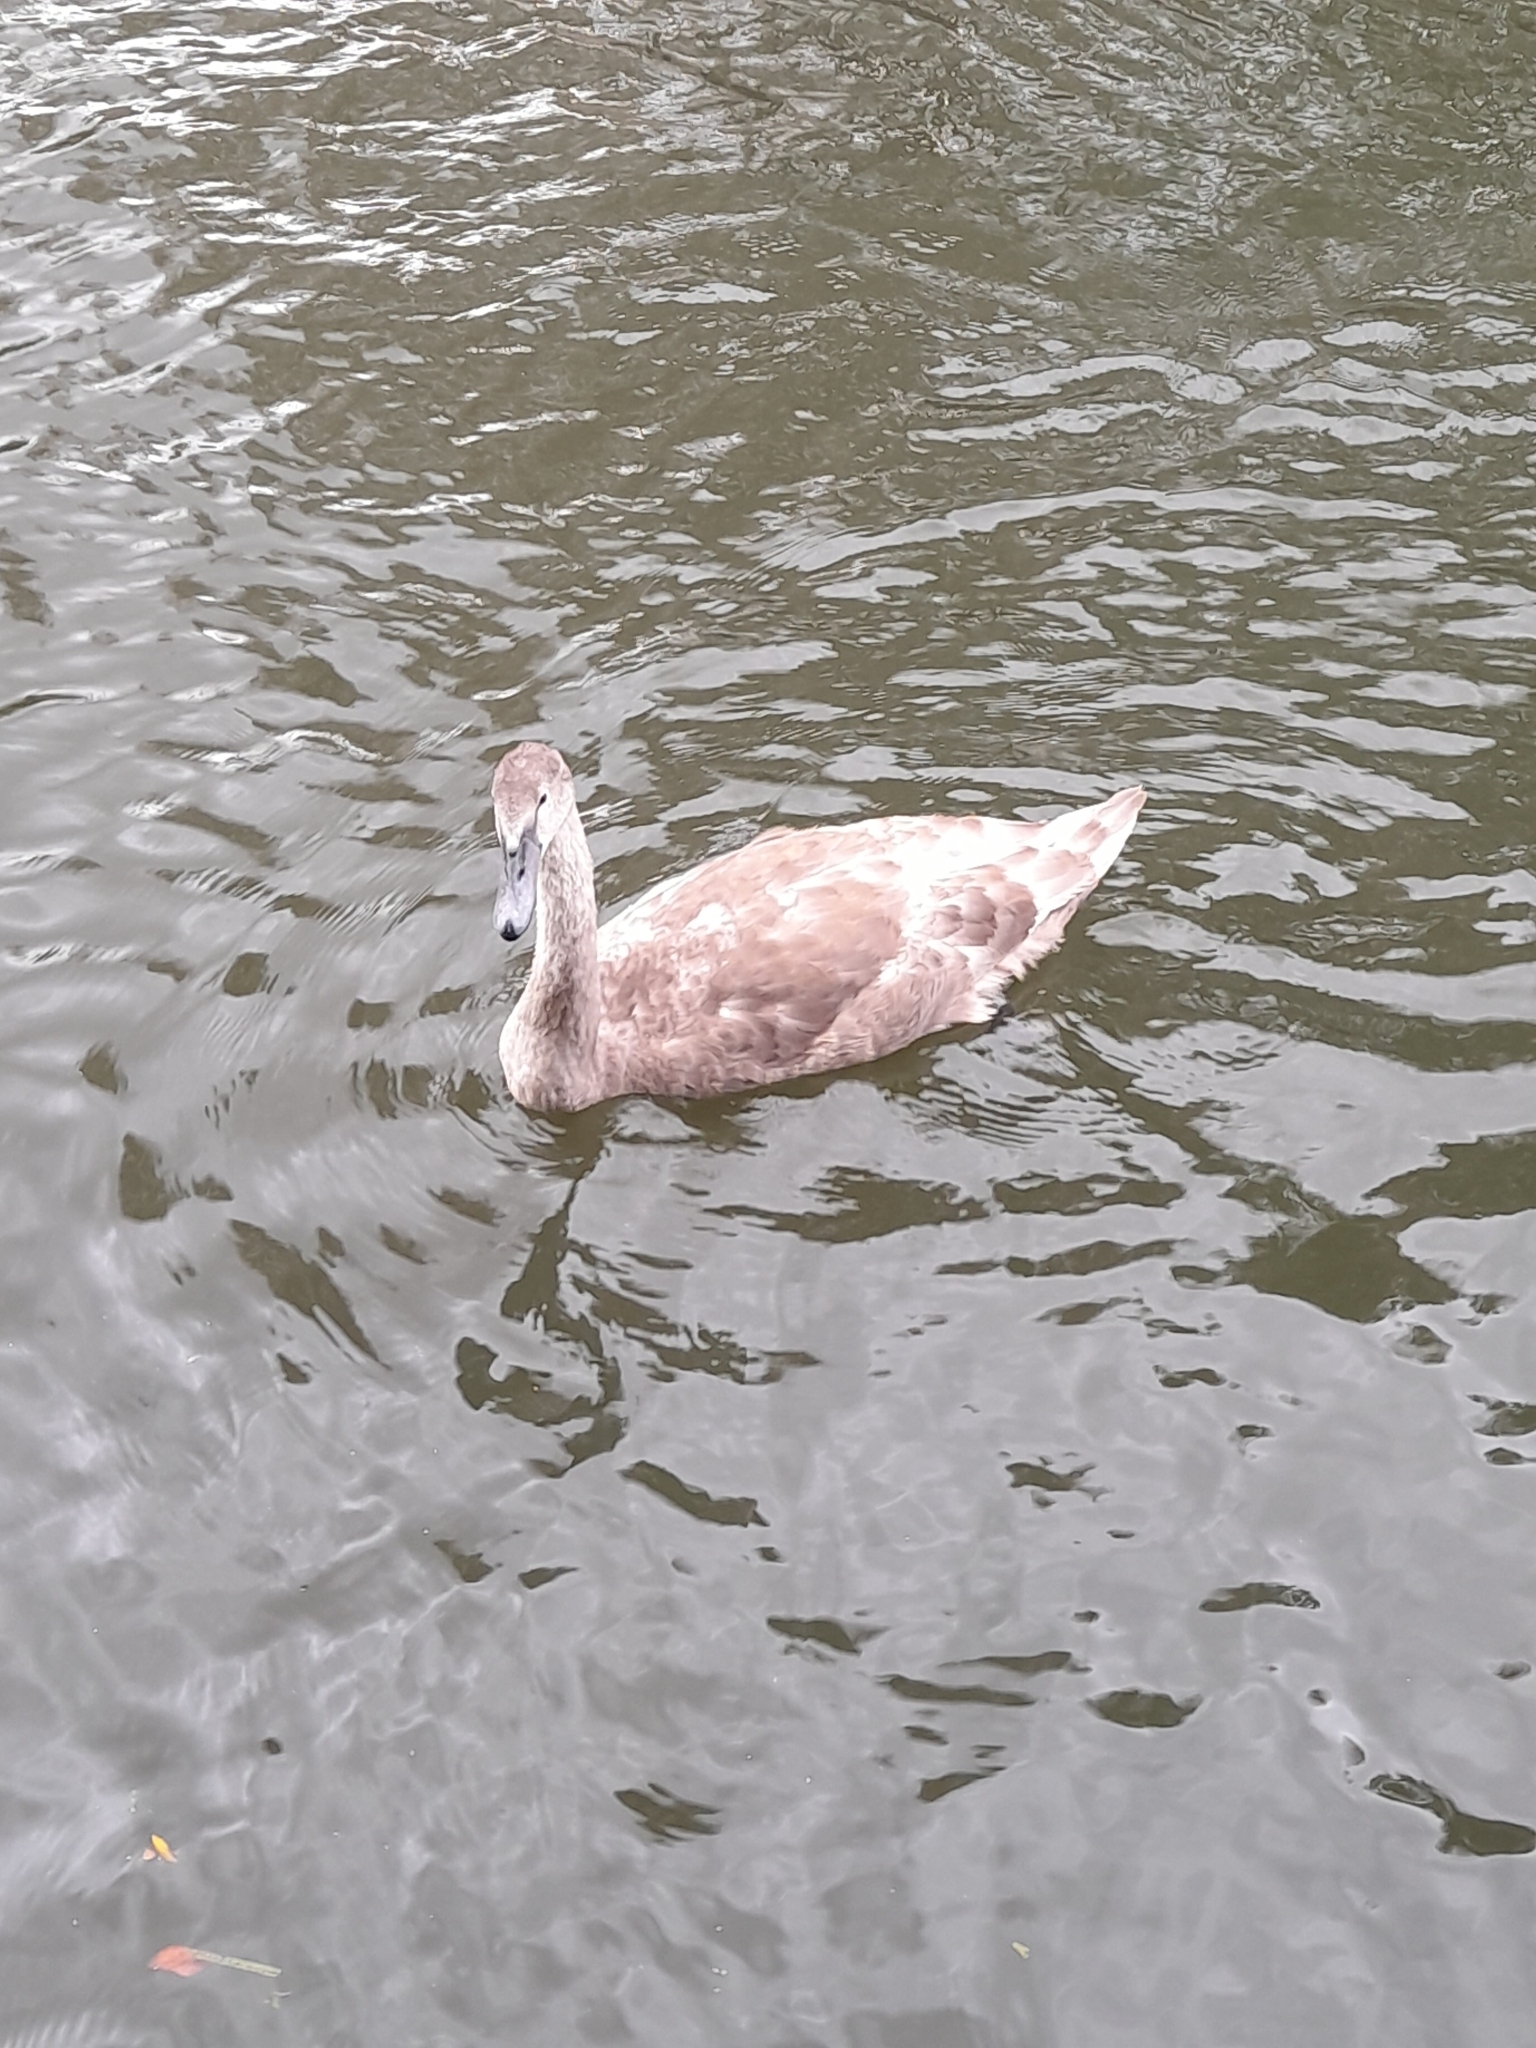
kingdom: Animalia
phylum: Chordata
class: Aves
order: Anseriformes
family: Anatidae
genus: Cygnus
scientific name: Cygnus olor
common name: Mute swan
